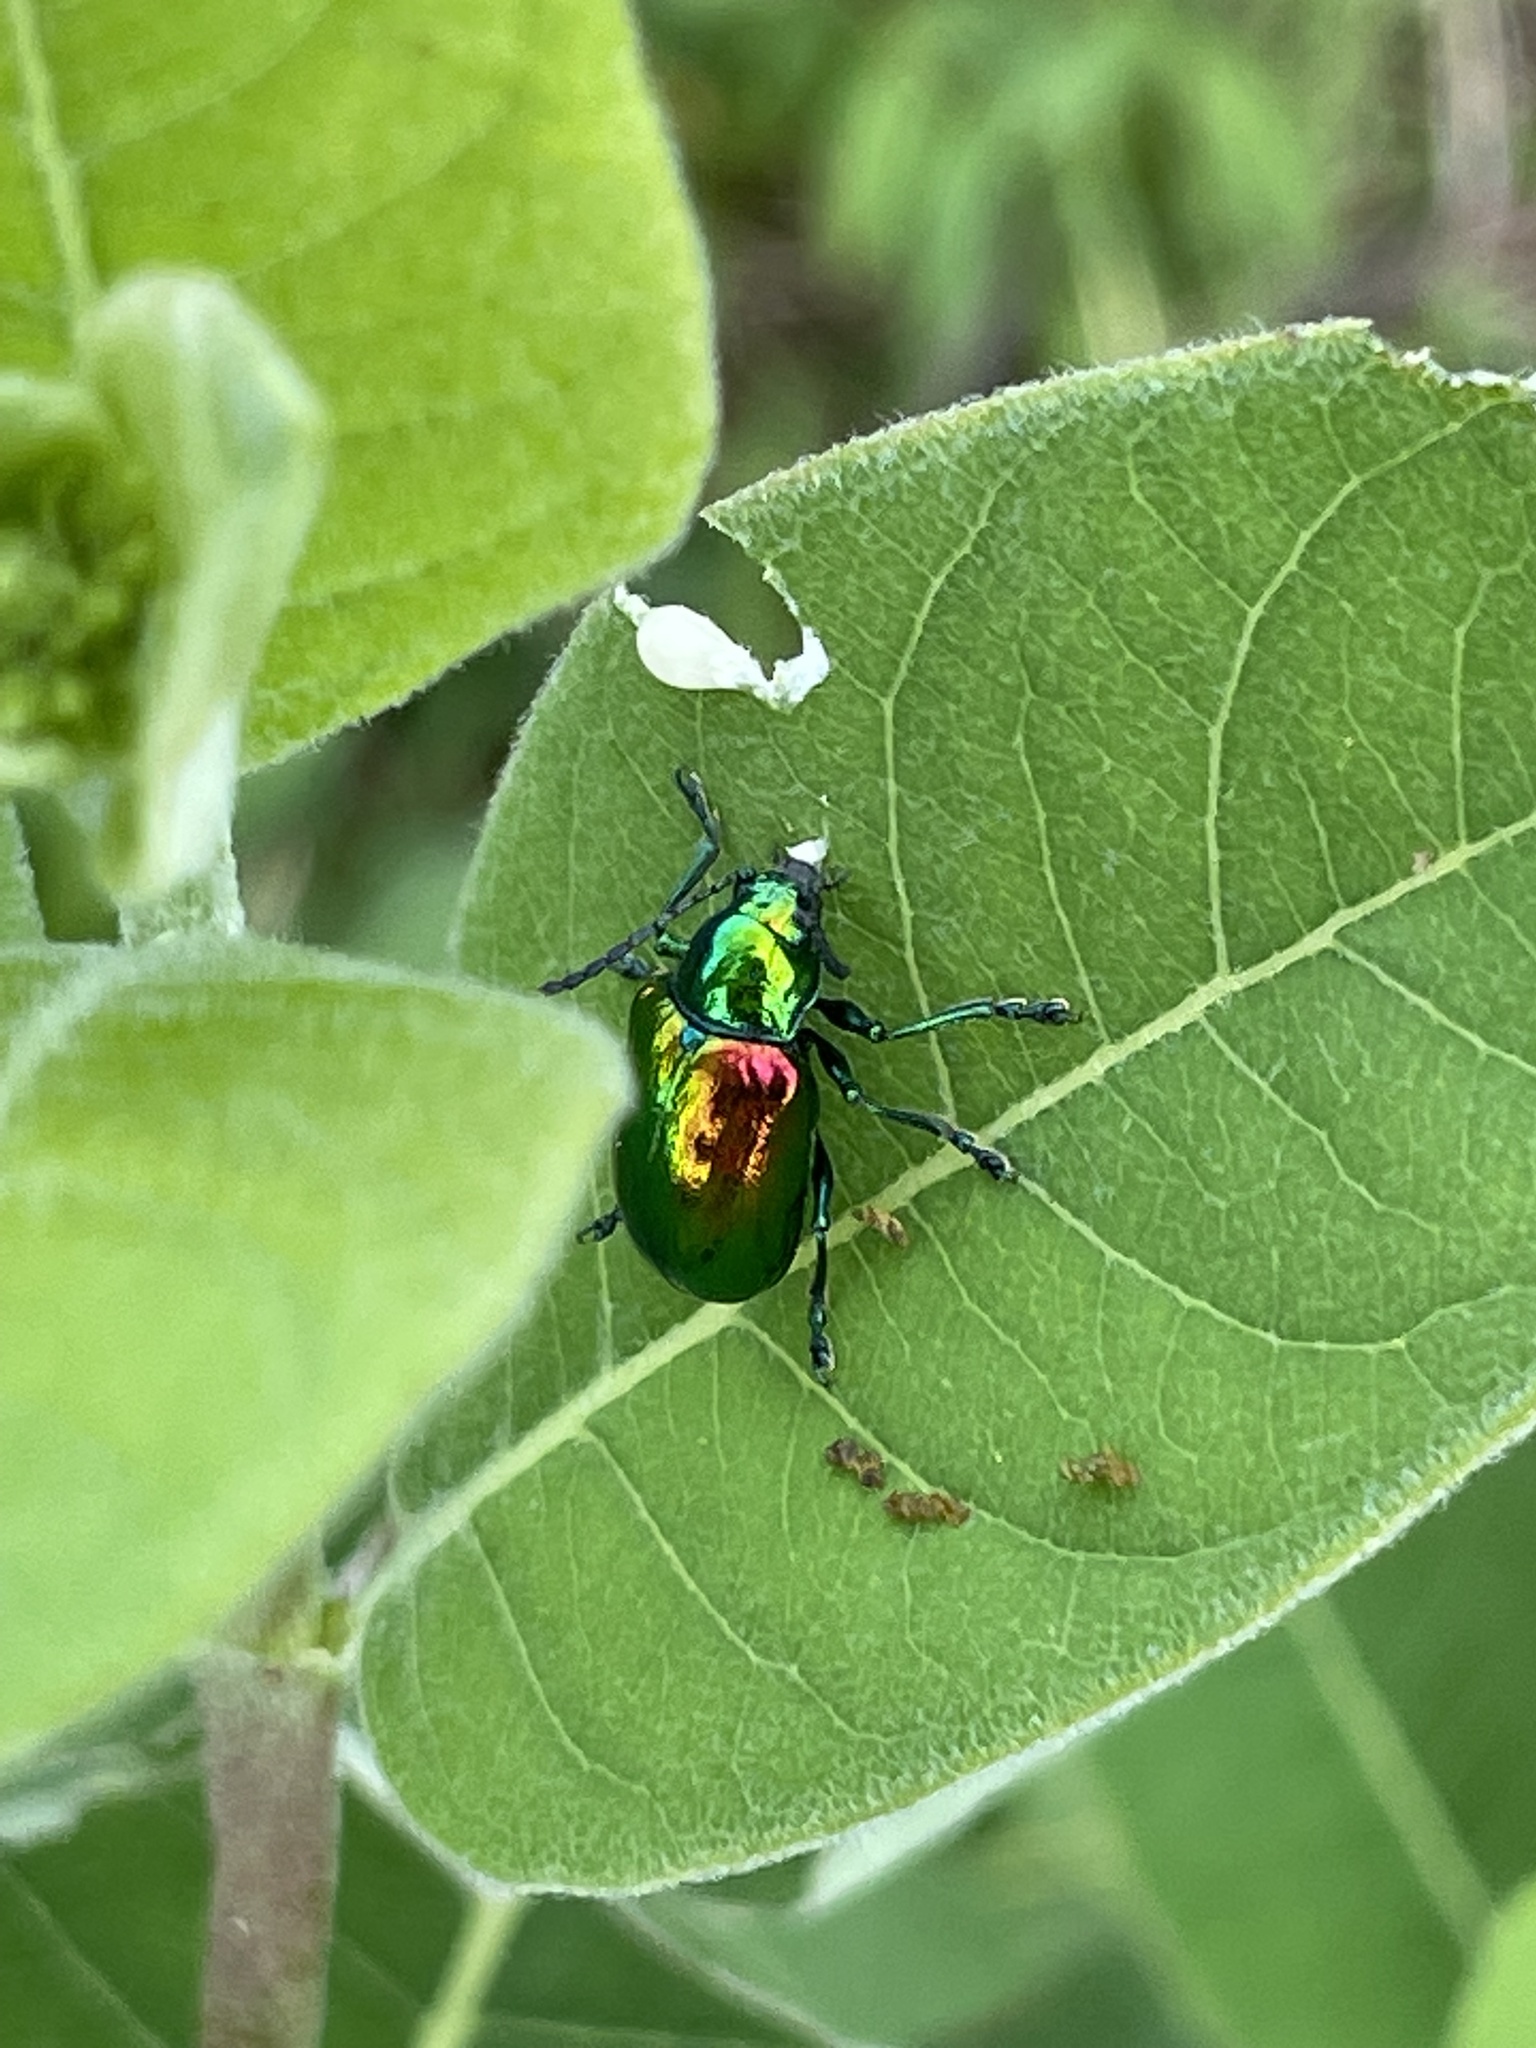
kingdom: Animalia
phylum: Arthropoda
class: Insecta
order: Coleoptera
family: Chrysomelidae
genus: Chrysochus
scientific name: Chrysochus auratus
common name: Dogbane leaf beetle
